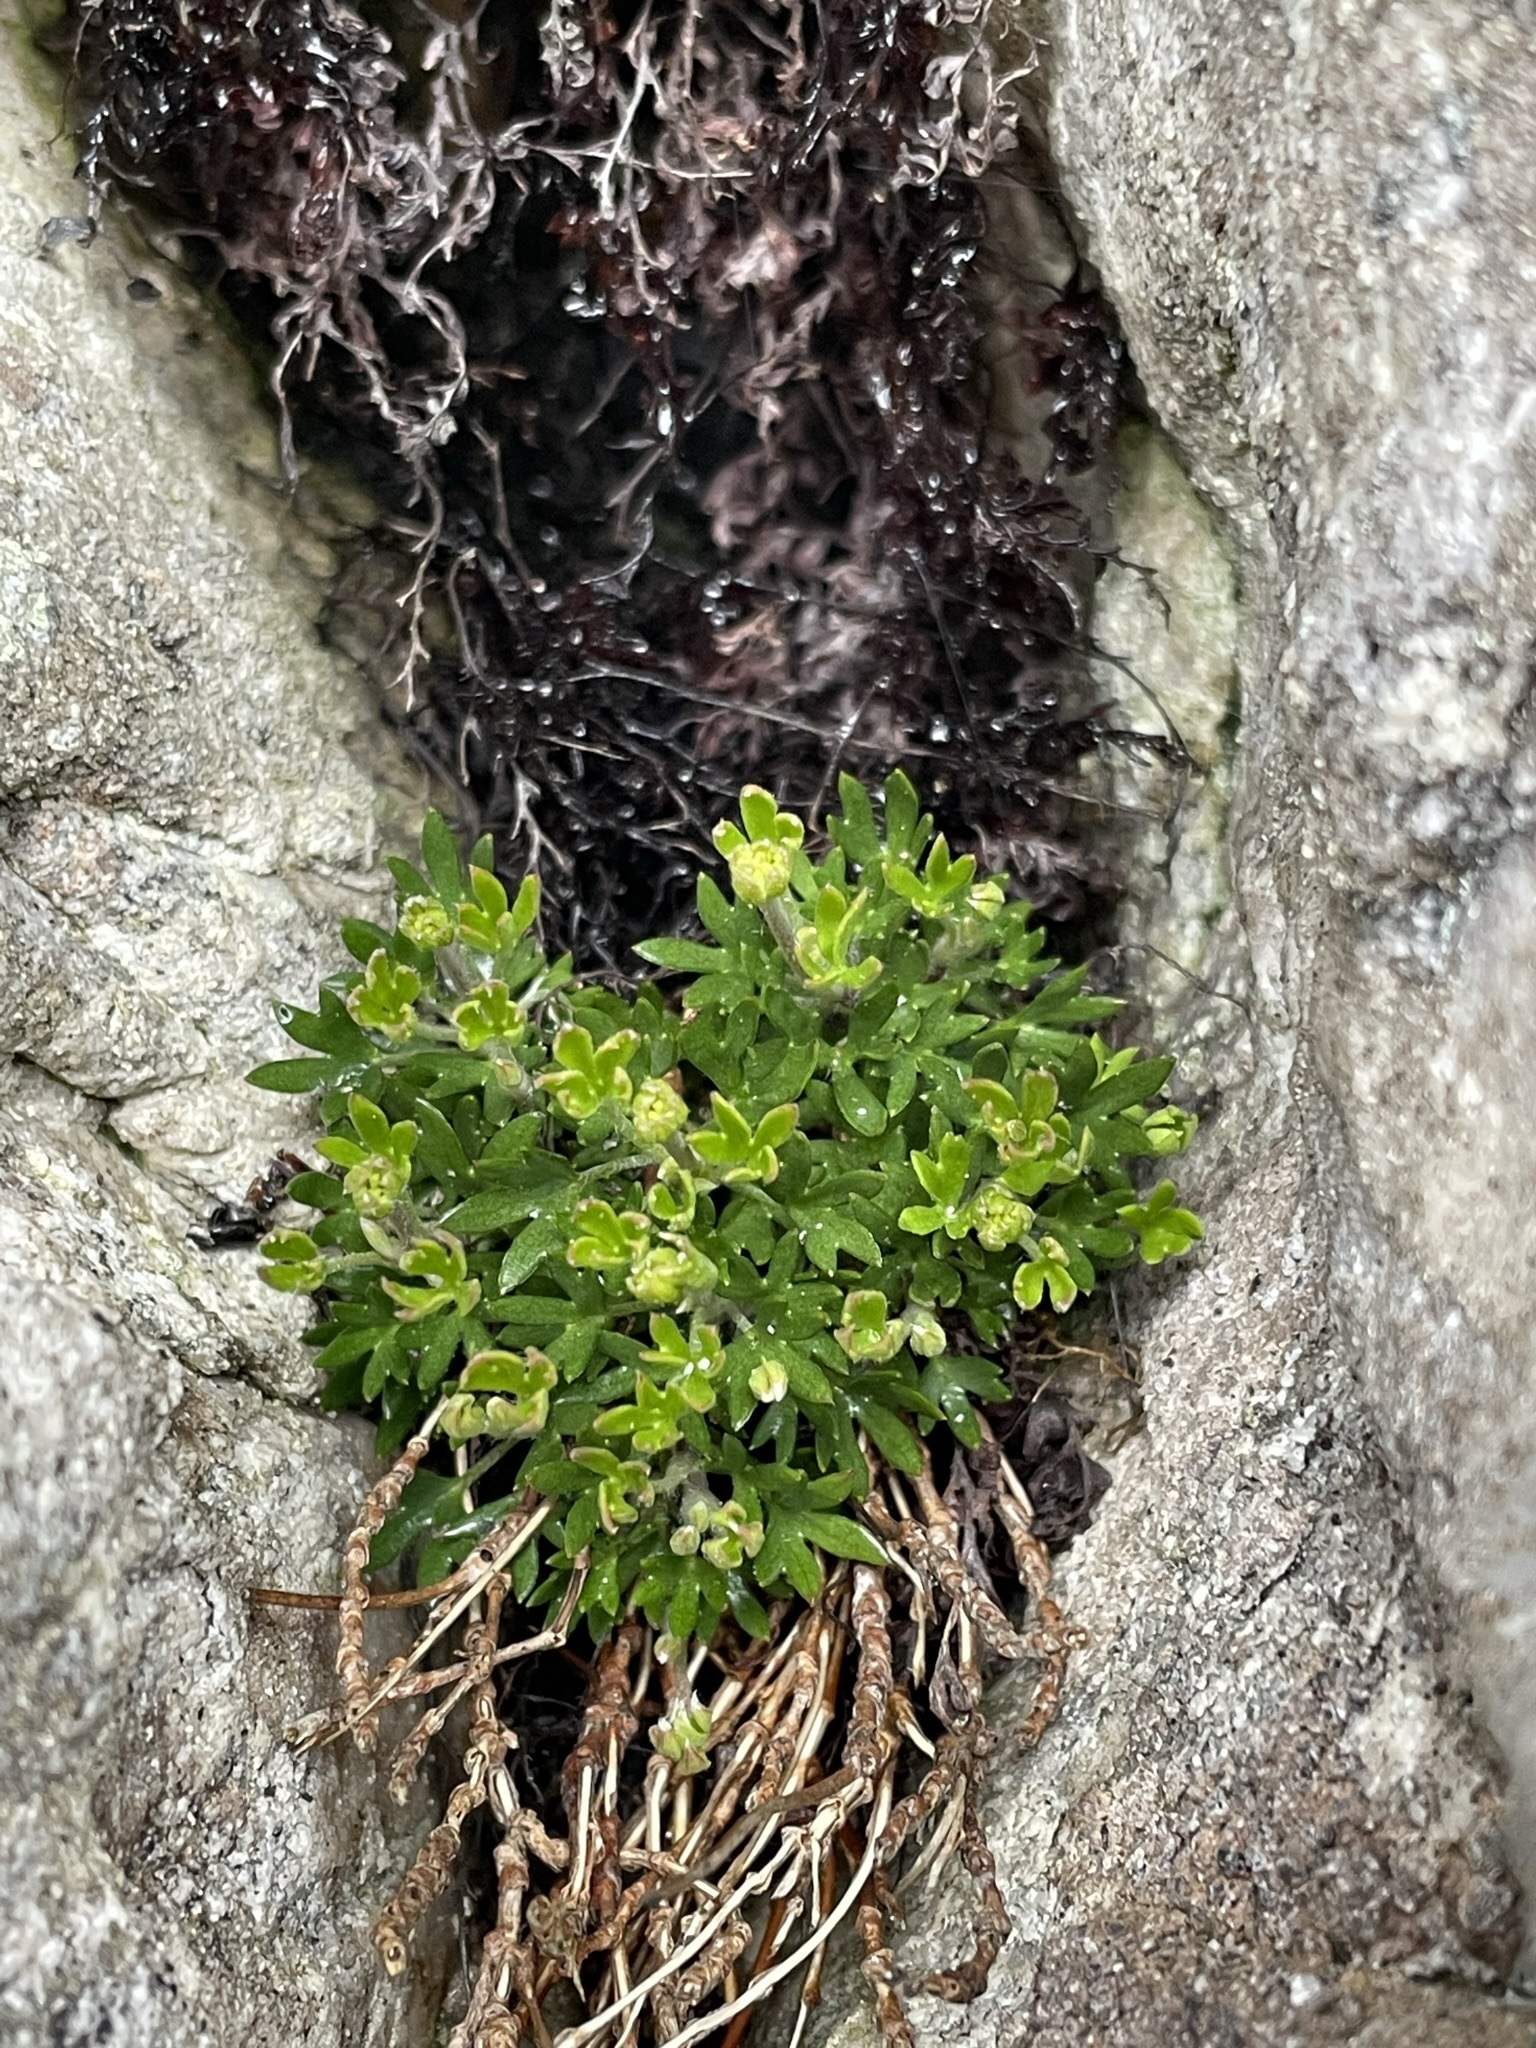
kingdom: Plantae
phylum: Tracheophyta
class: Magnoliopsida
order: Apiales
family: Apiaceae
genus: Actinotus
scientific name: Actinotus moorei
